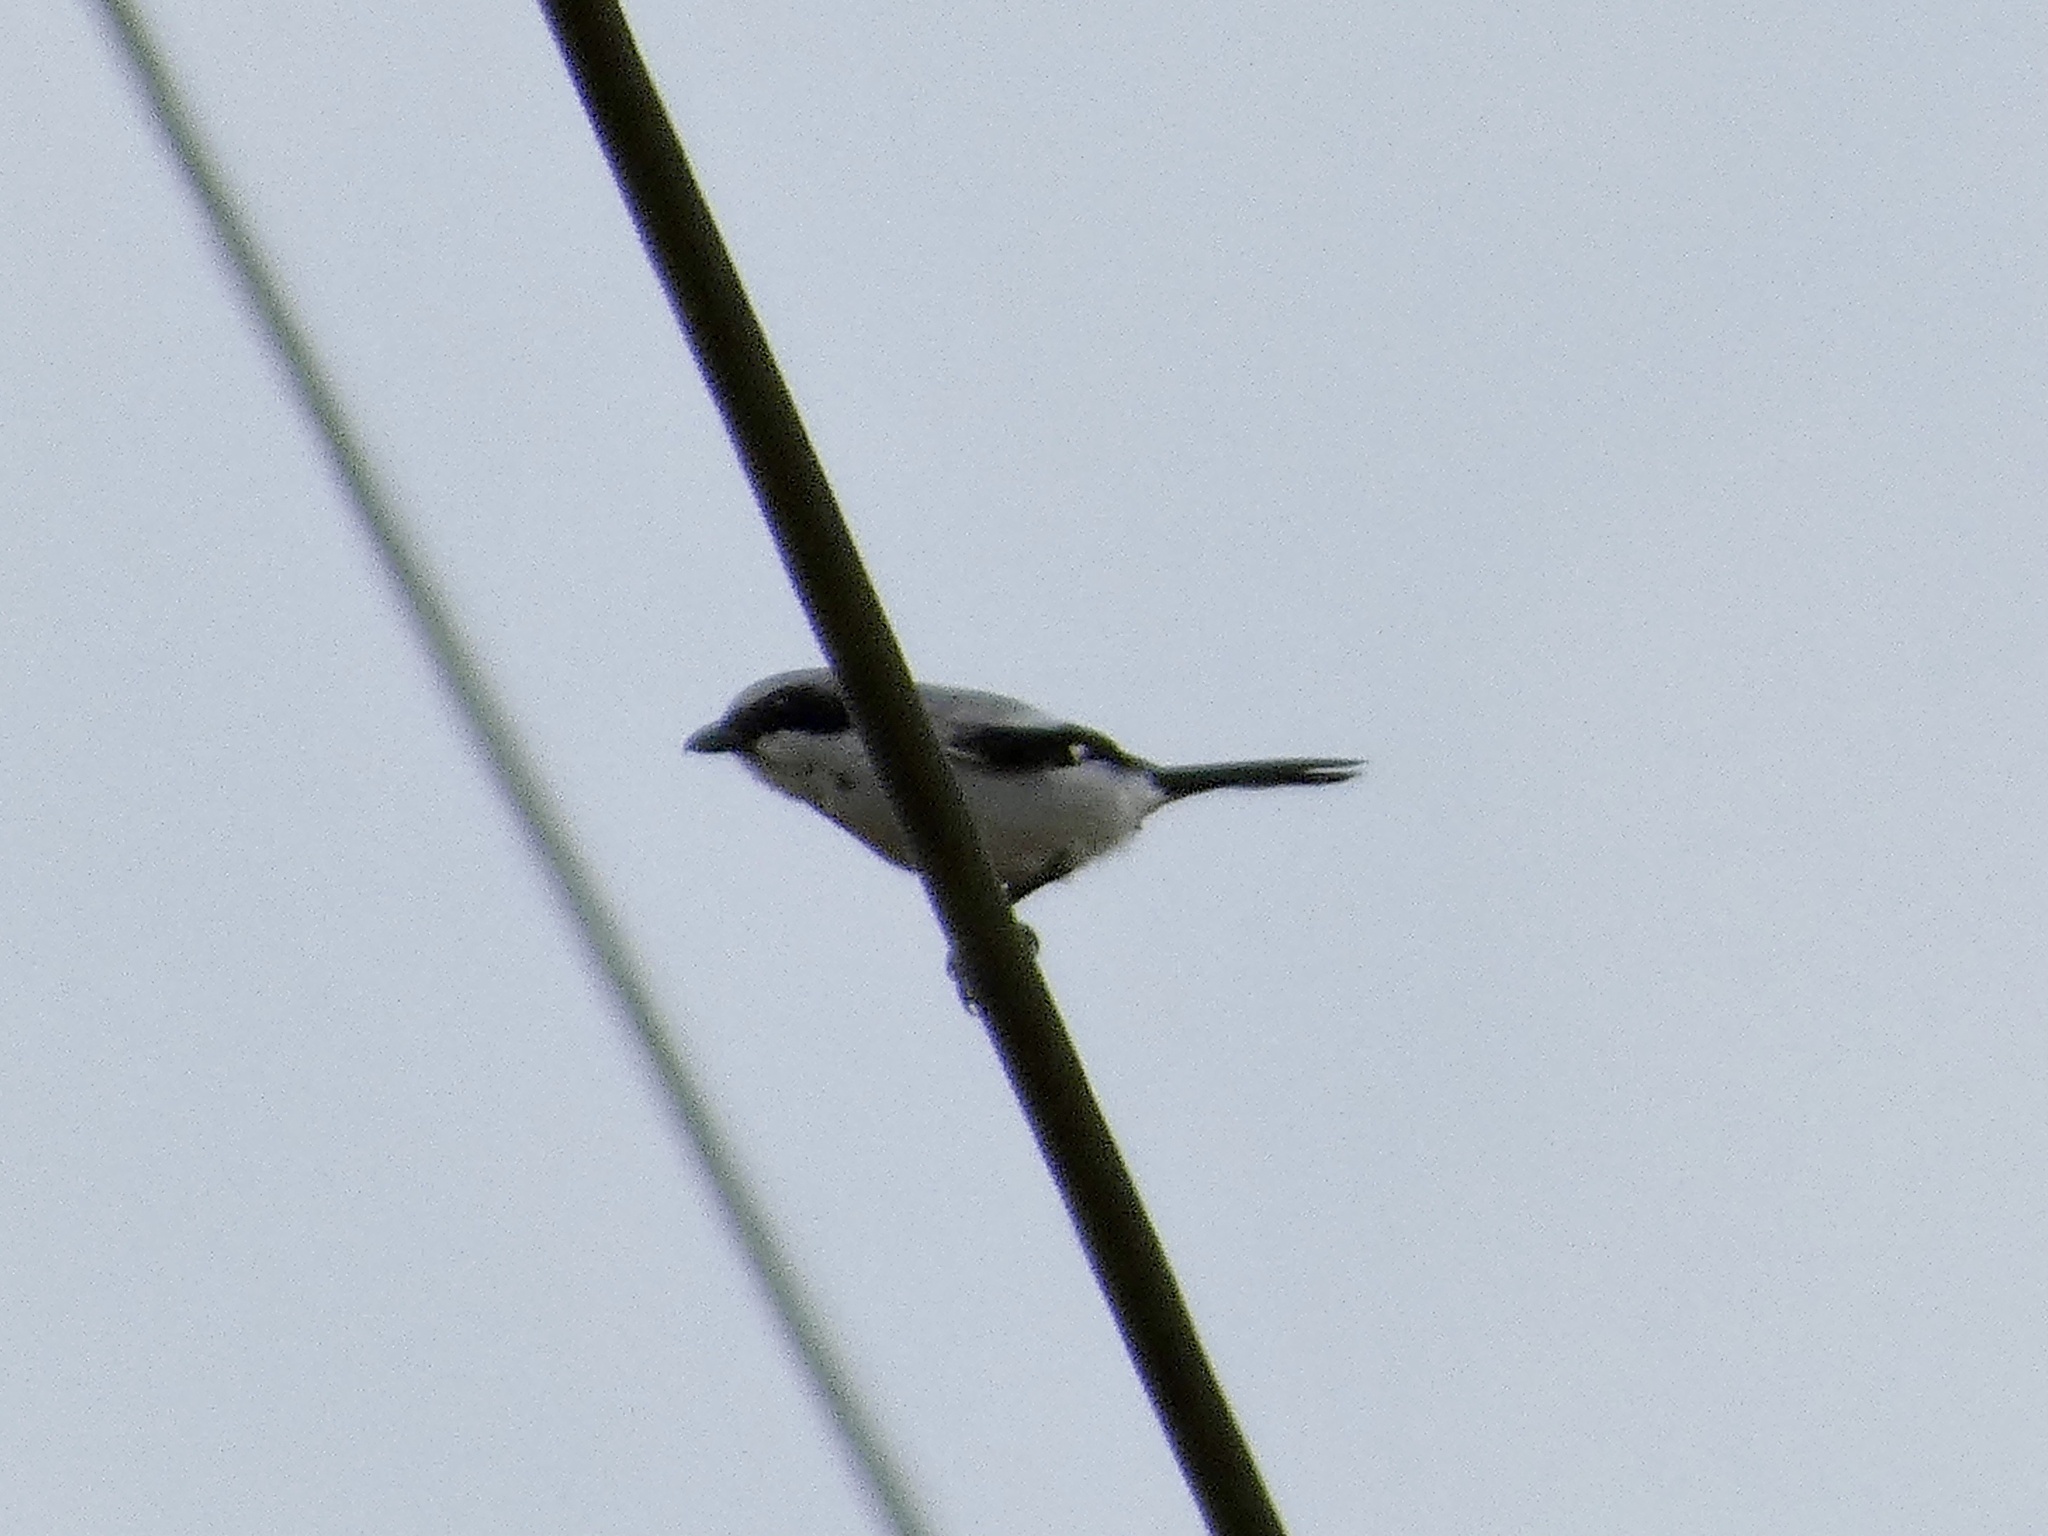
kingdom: Animalia
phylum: Chordata
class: Aves
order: Passeriformes
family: Laniidae
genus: Lanius
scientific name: Lanius ludovicianus
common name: Loggerhead shrike
